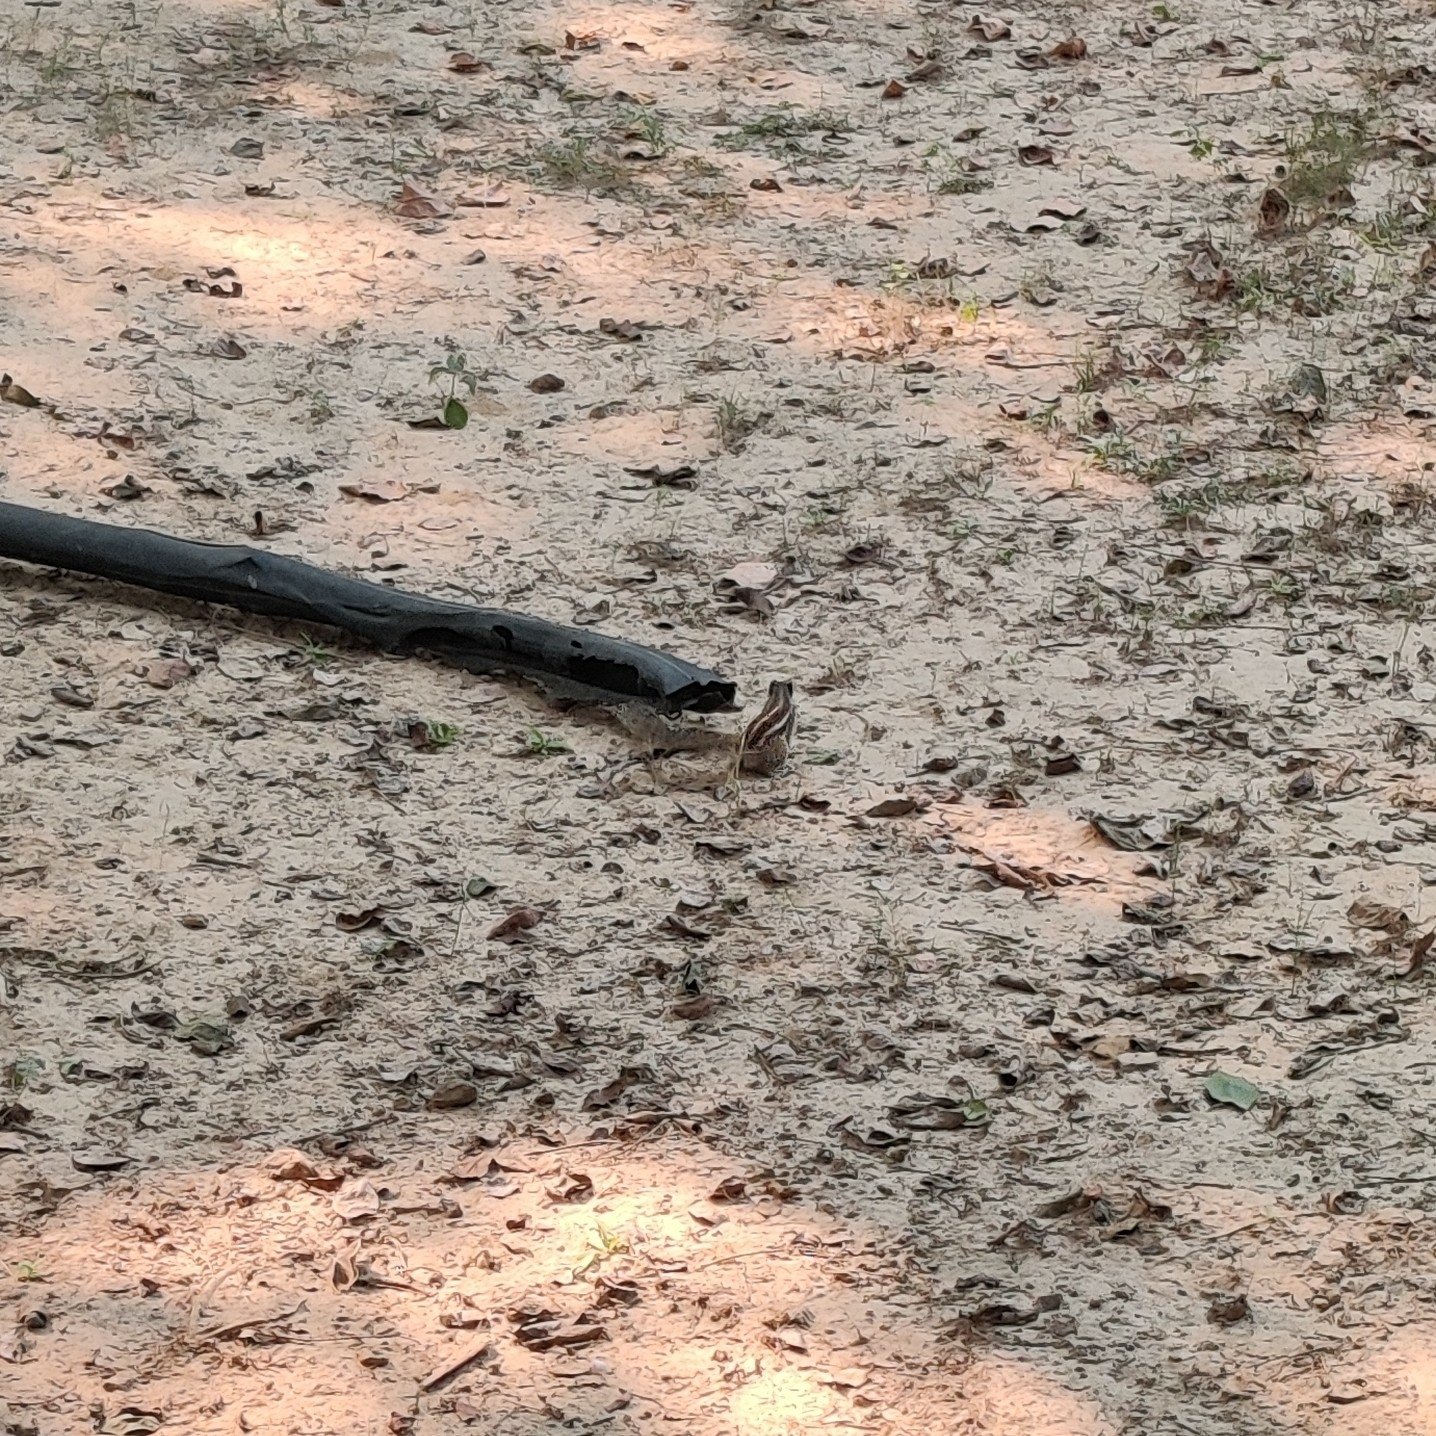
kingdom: Animalia
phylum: Chordata
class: Mammalia
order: Rodentia
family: Sciuridae
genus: Funambulus
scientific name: Funambulus pennantii
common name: Northern palm squirrel
